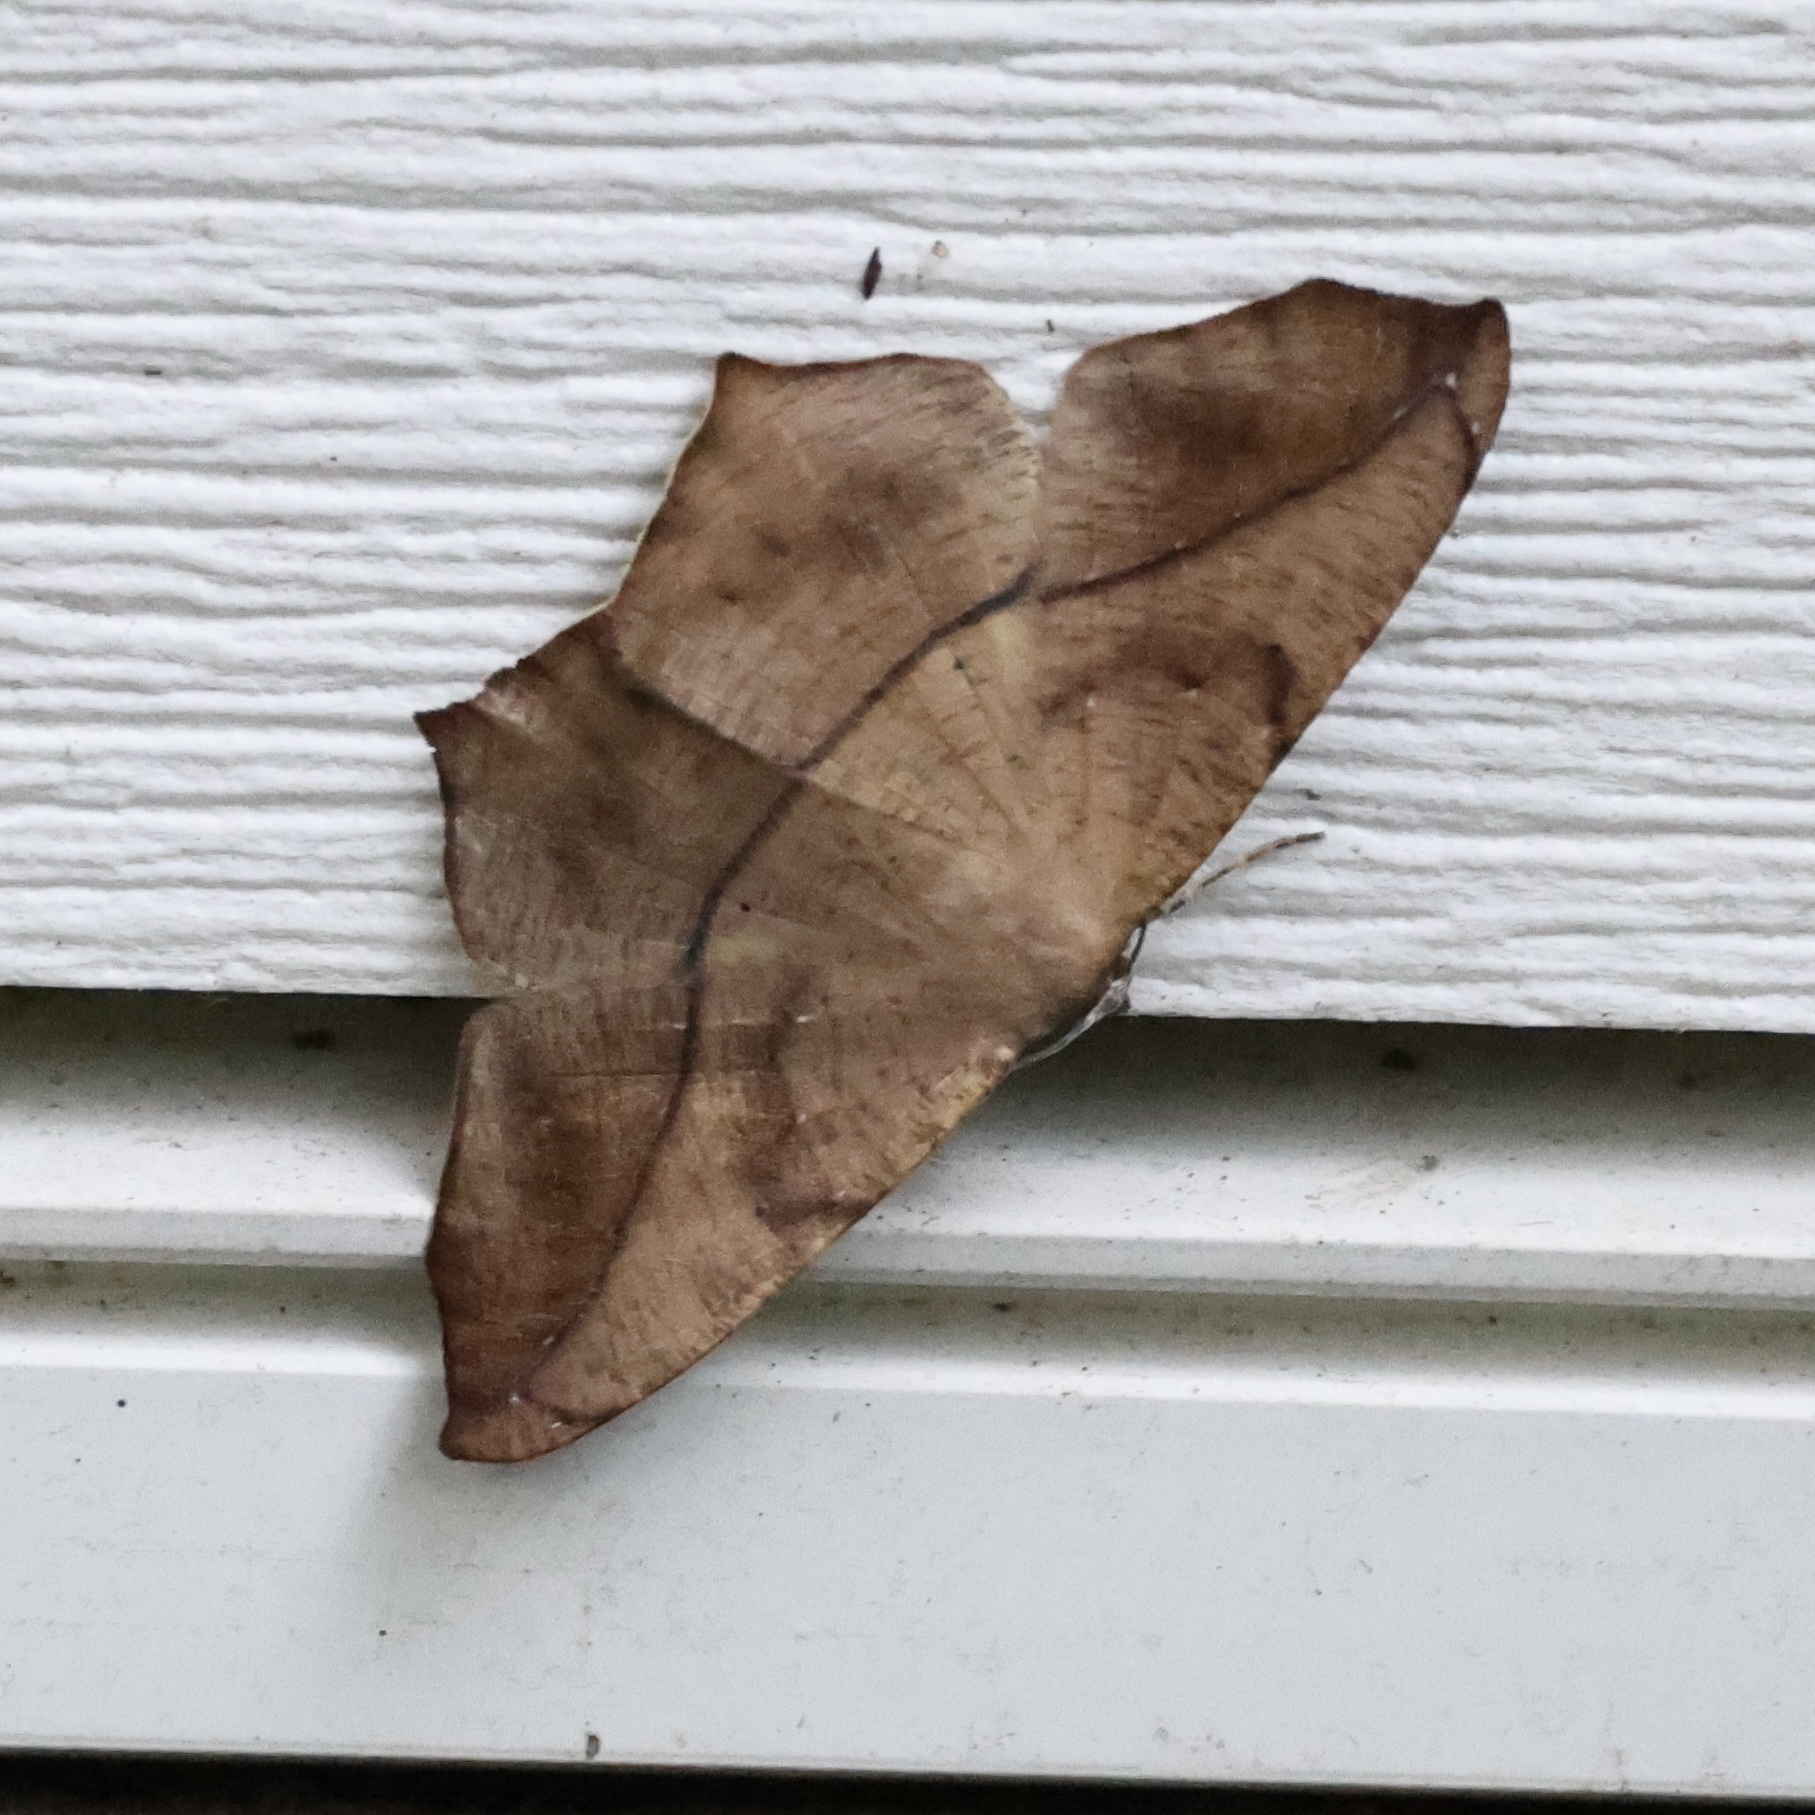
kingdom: Animalia
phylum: Arthropoda
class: Insecta
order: Lepidoptera
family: Geometridae
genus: Prochoerodes
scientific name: Prochoerodes lineola
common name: Large maple spanworm
